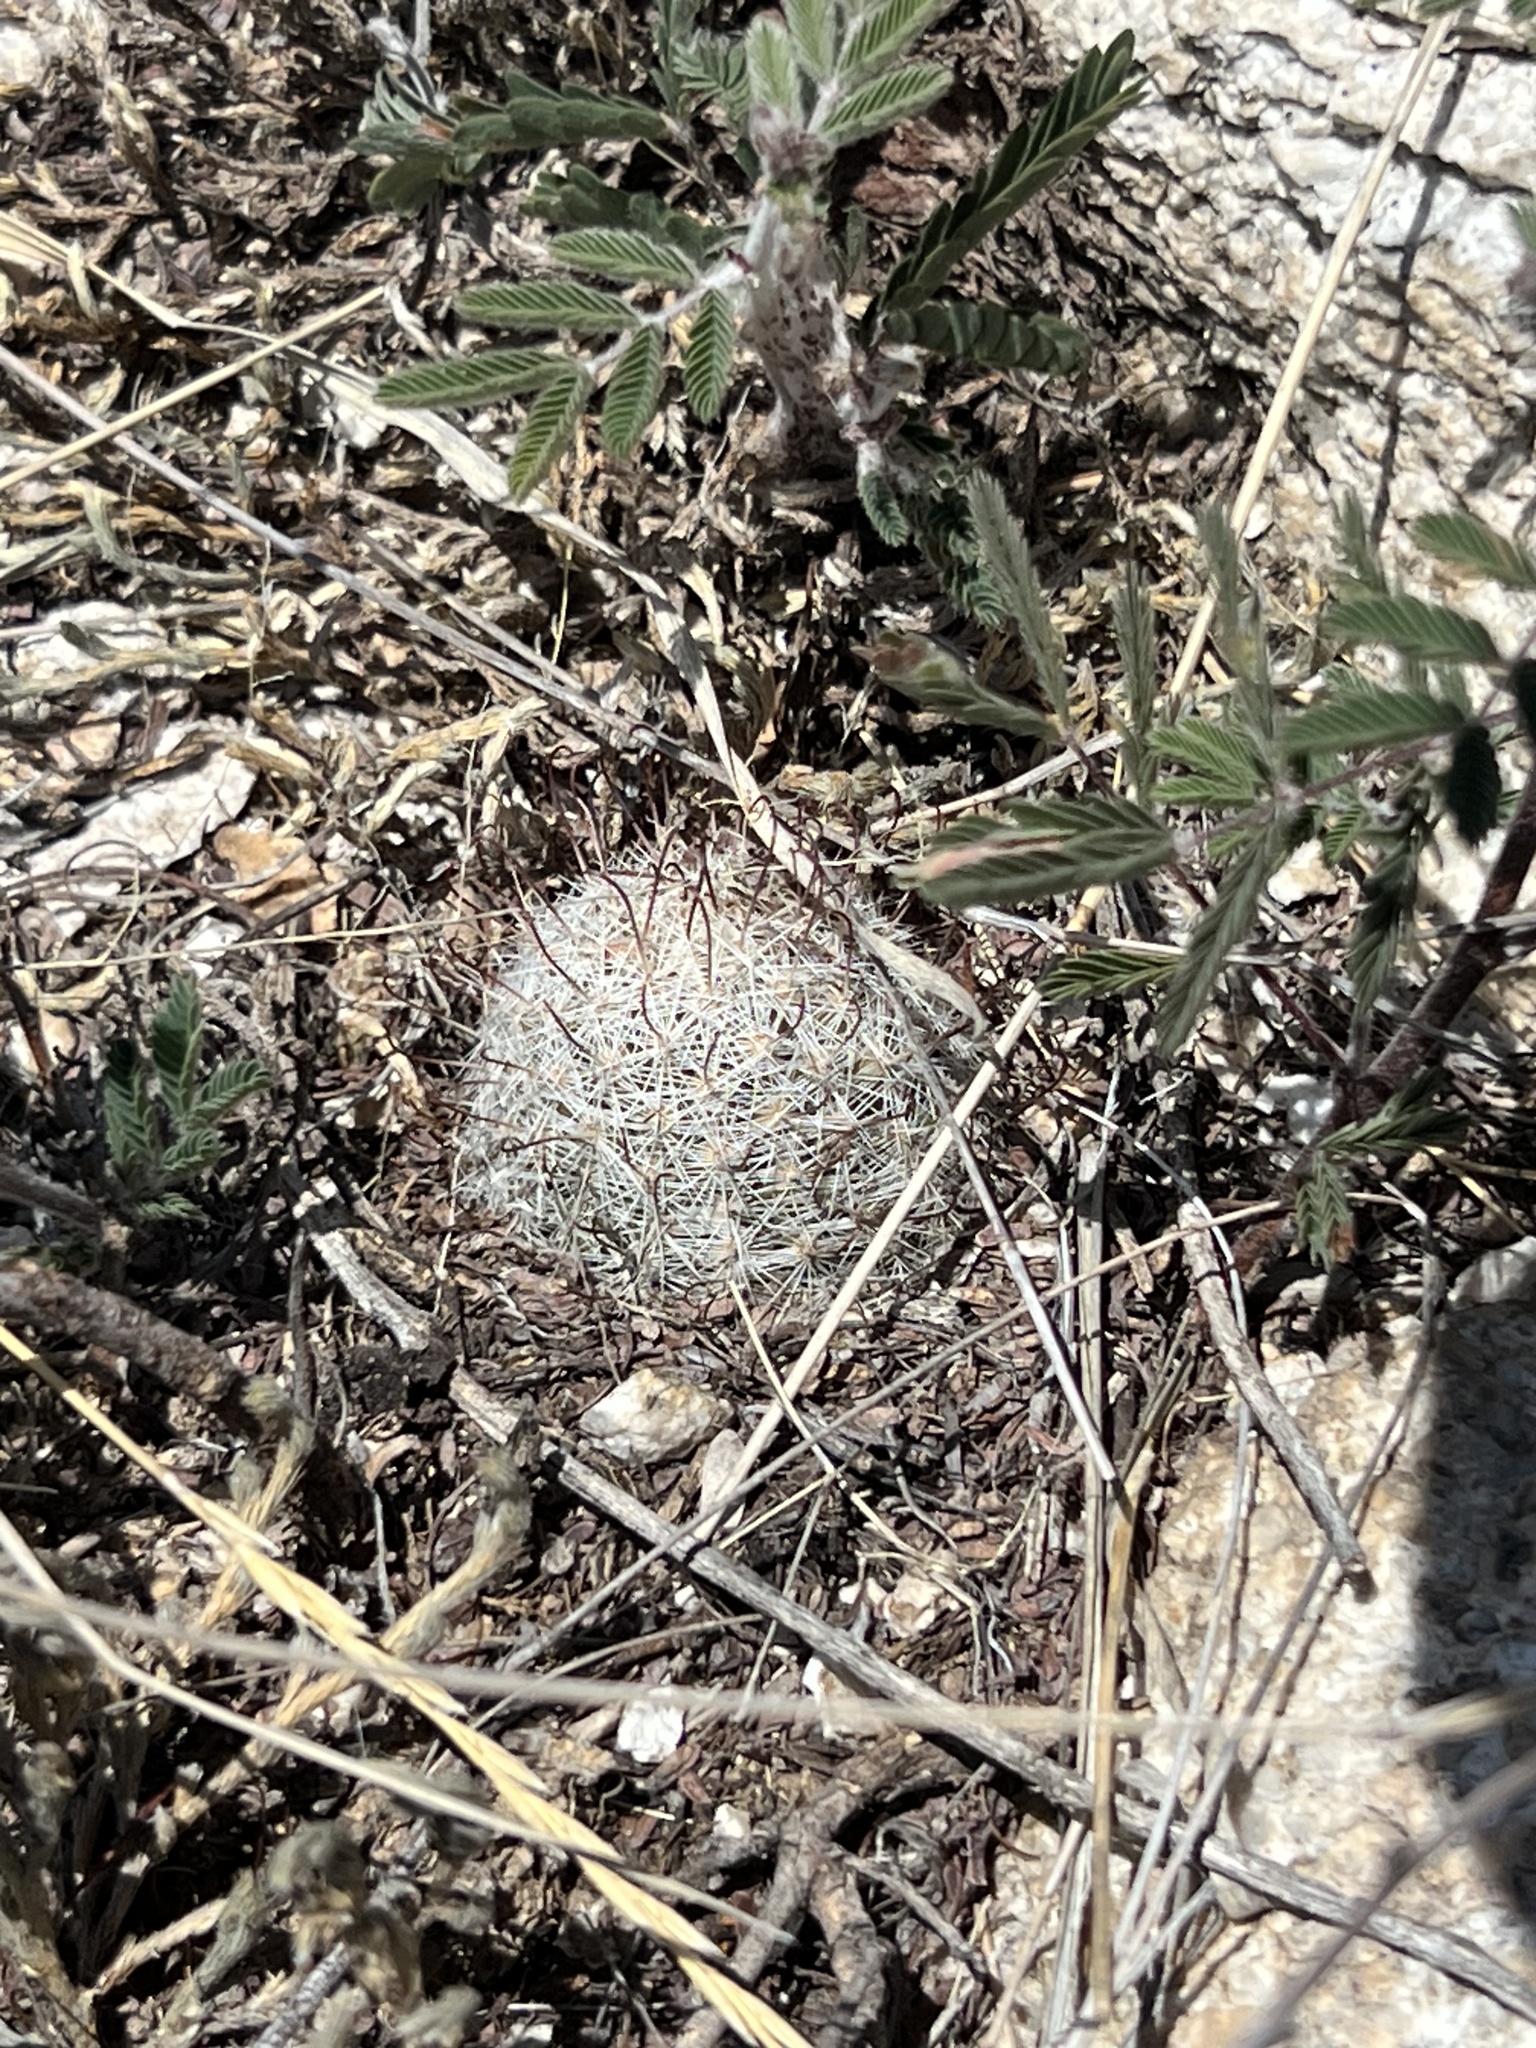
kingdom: Plantae
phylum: Tracheophyta
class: Magnoliopsida
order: Caryophyllales
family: Cactaceae
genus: Cochemiea
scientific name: Cochemiea grahamii
